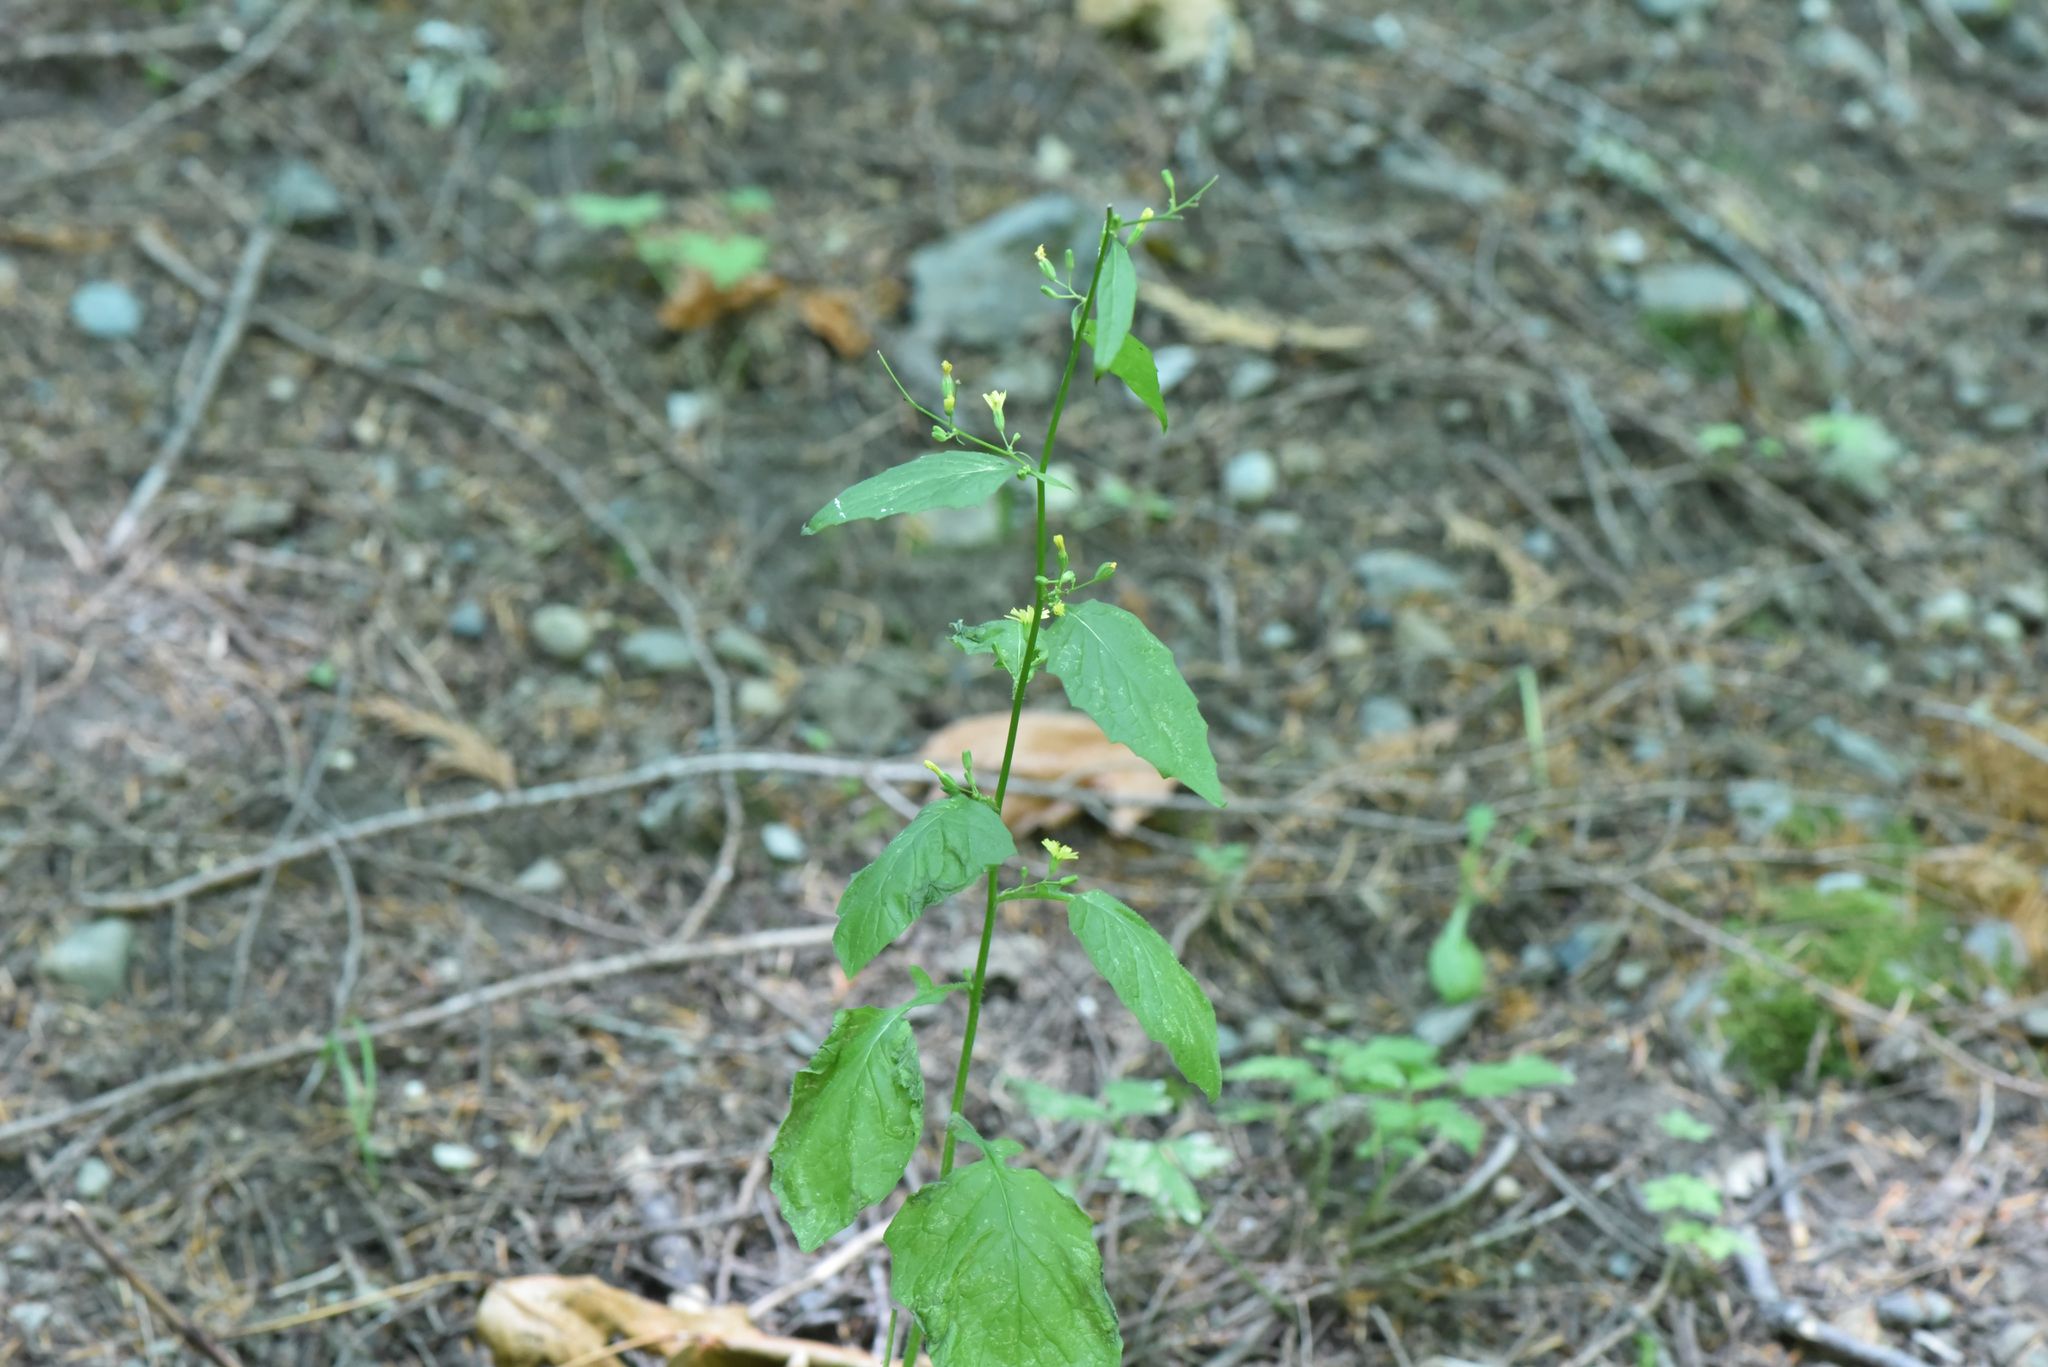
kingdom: Plantae
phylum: Tracheophyta
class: Magnoliopsida
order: Asterales
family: Asteraceae
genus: Lapsana
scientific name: Lapsana communis
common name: Nipplewort
